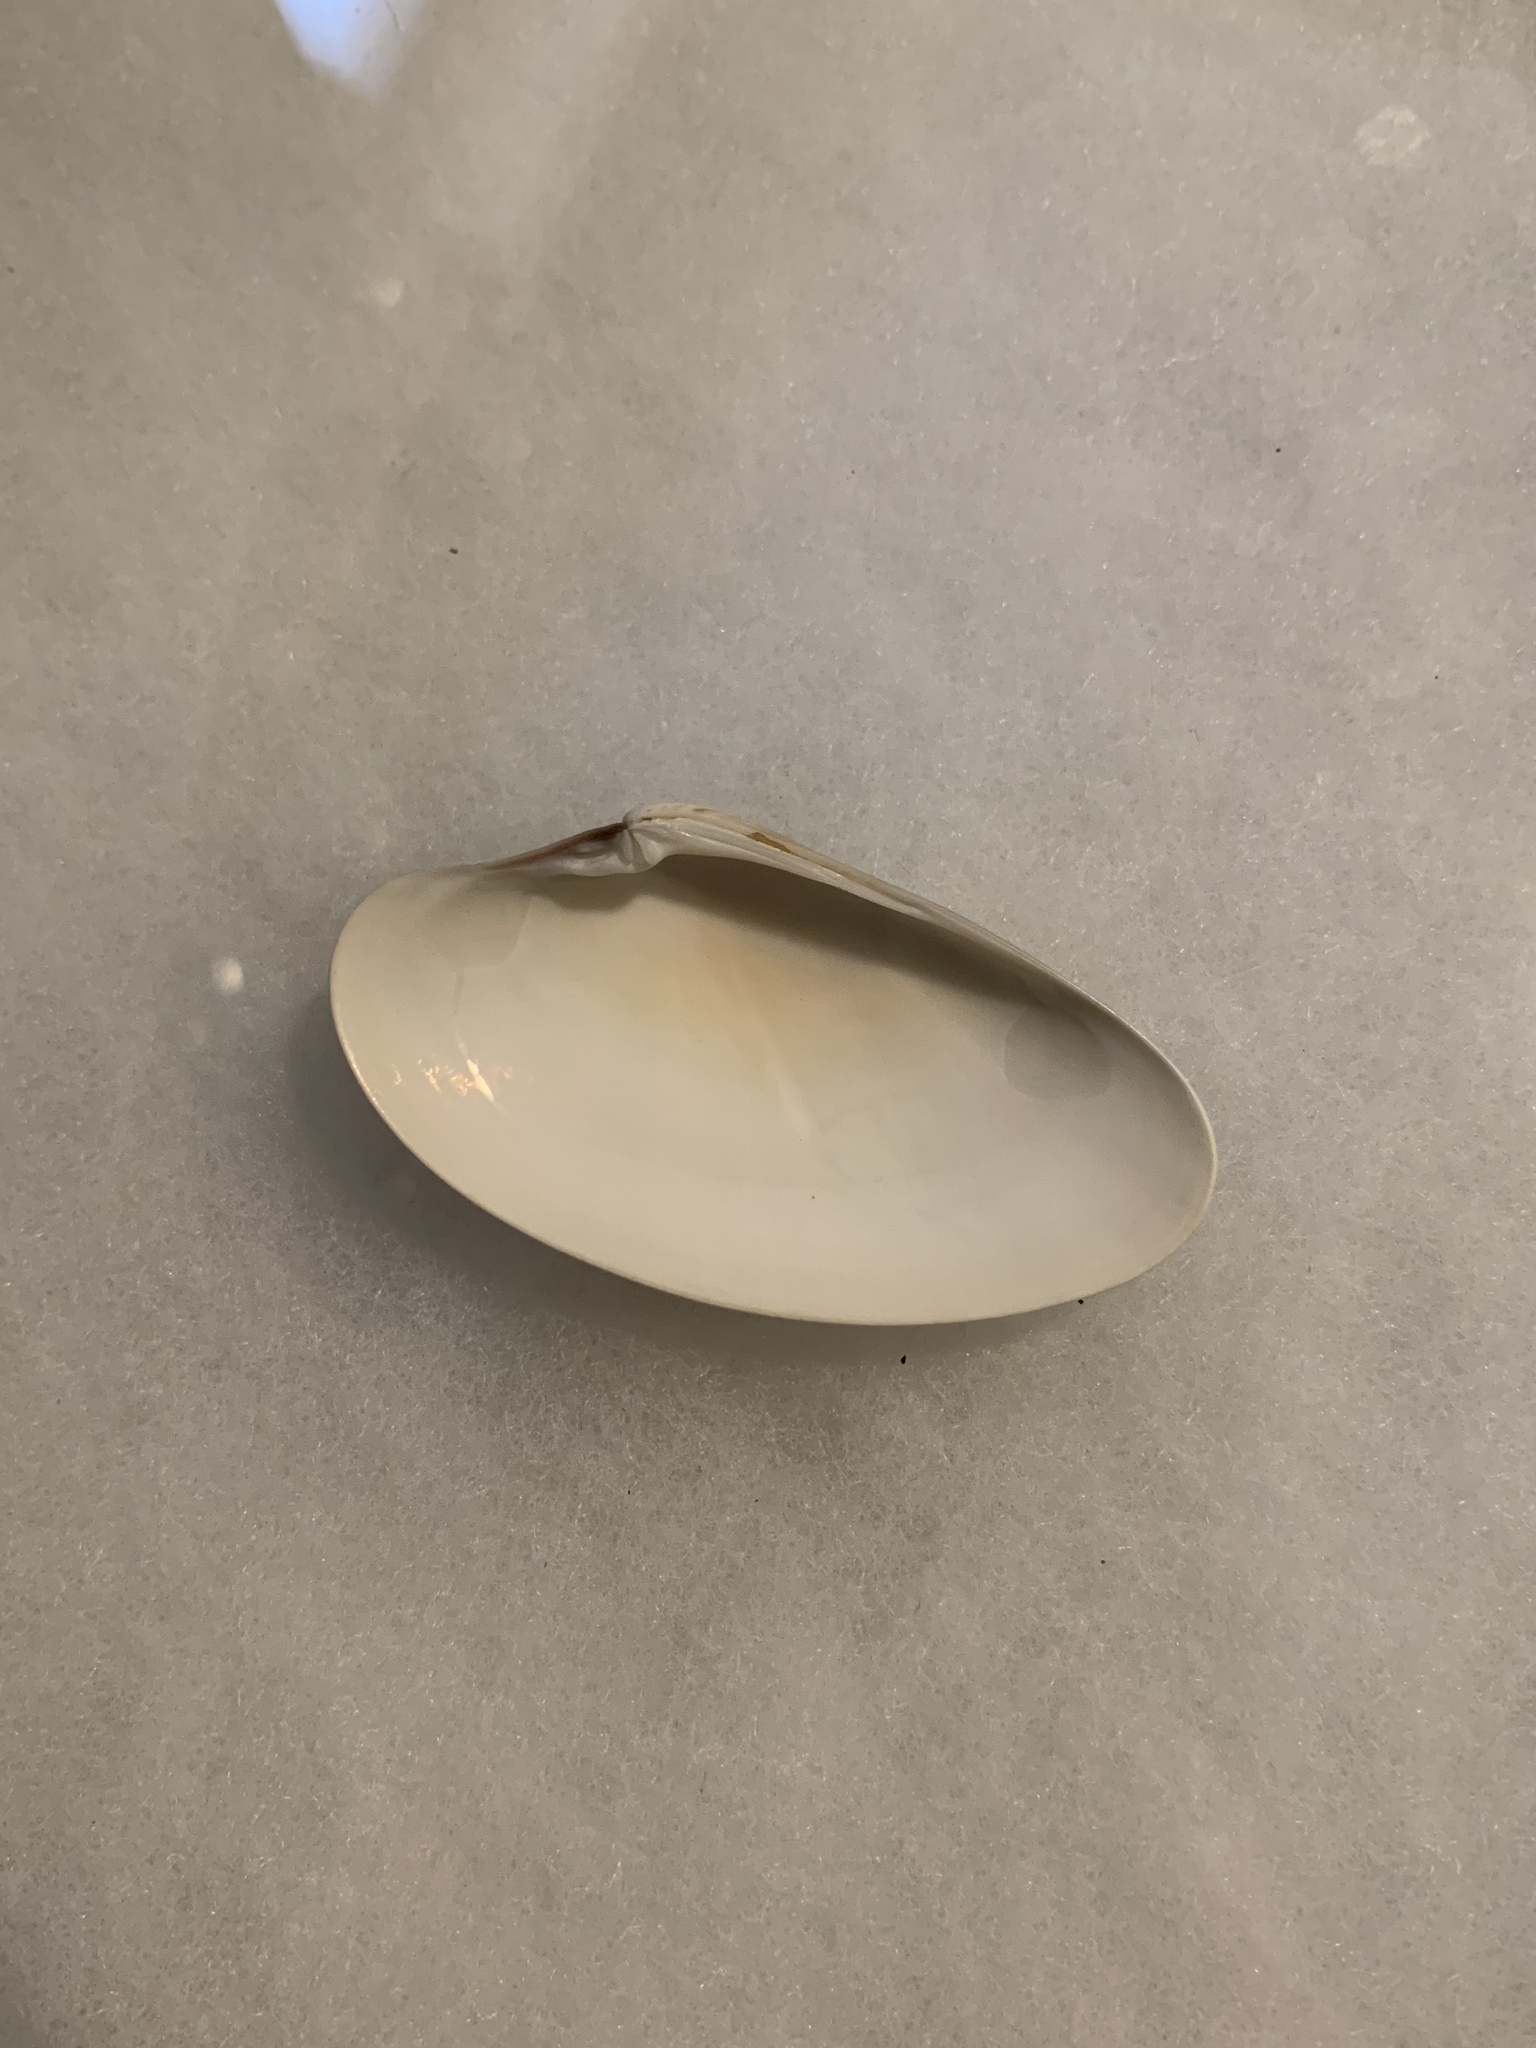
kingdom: Animalia
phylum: Mollusca
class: Bivalvia
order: Venerida
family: Veneridae
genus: Macrocallista
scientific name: Macrocallista nimbosa
